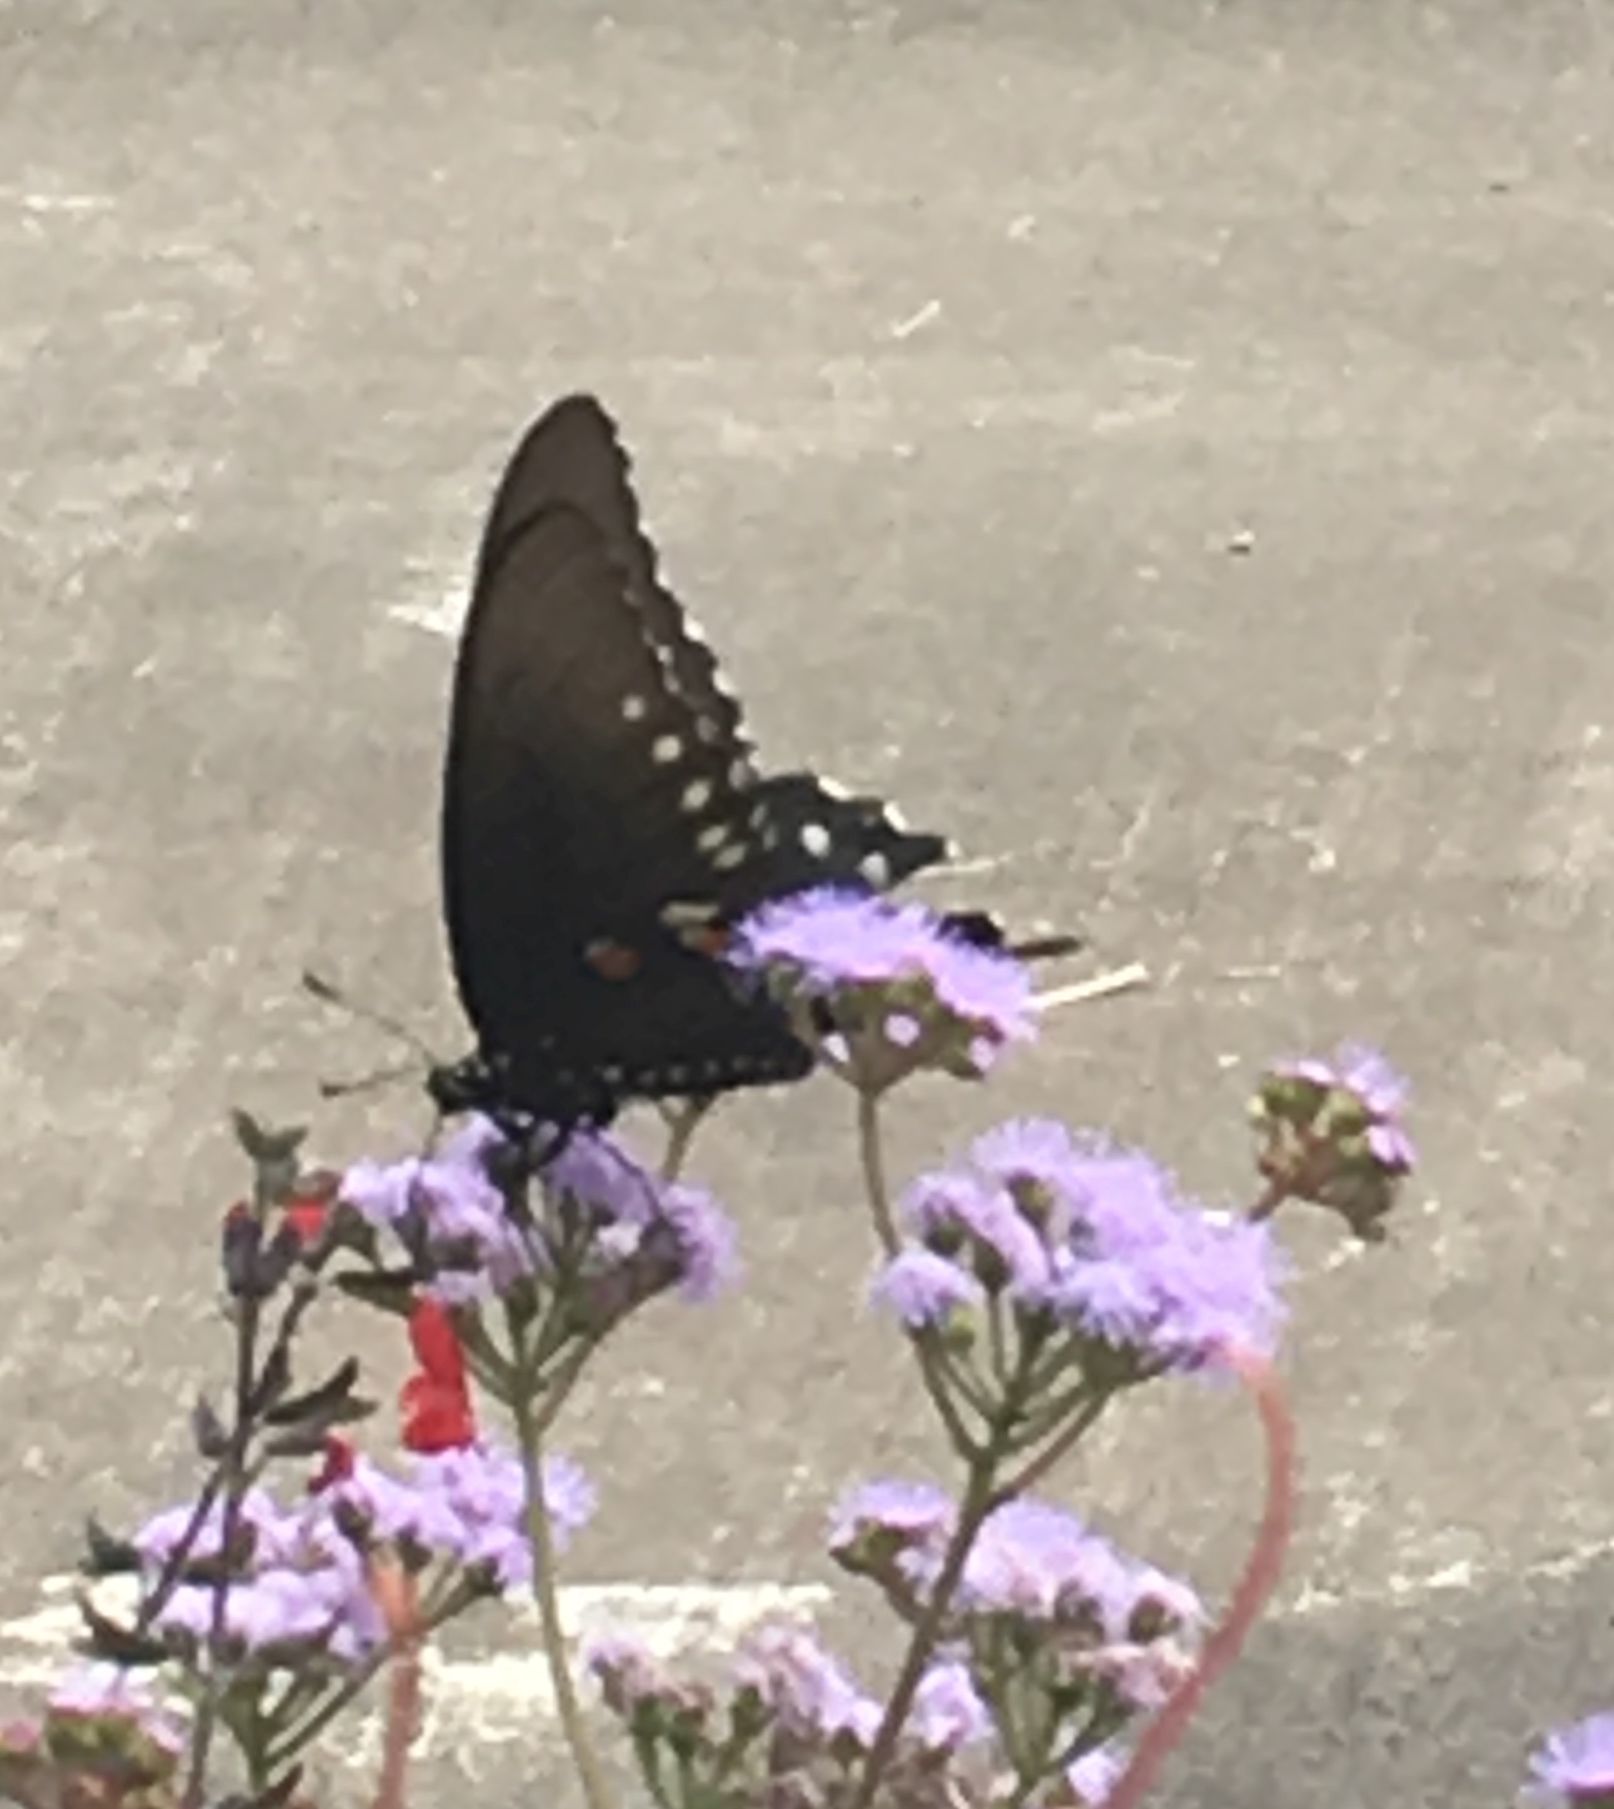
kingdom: Animalia
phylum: Arthropoda
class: Insecta
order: Lepidoptera
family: Papilionidae
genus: Battus
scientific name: Battus philenor
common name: Pipevine swallowtail
